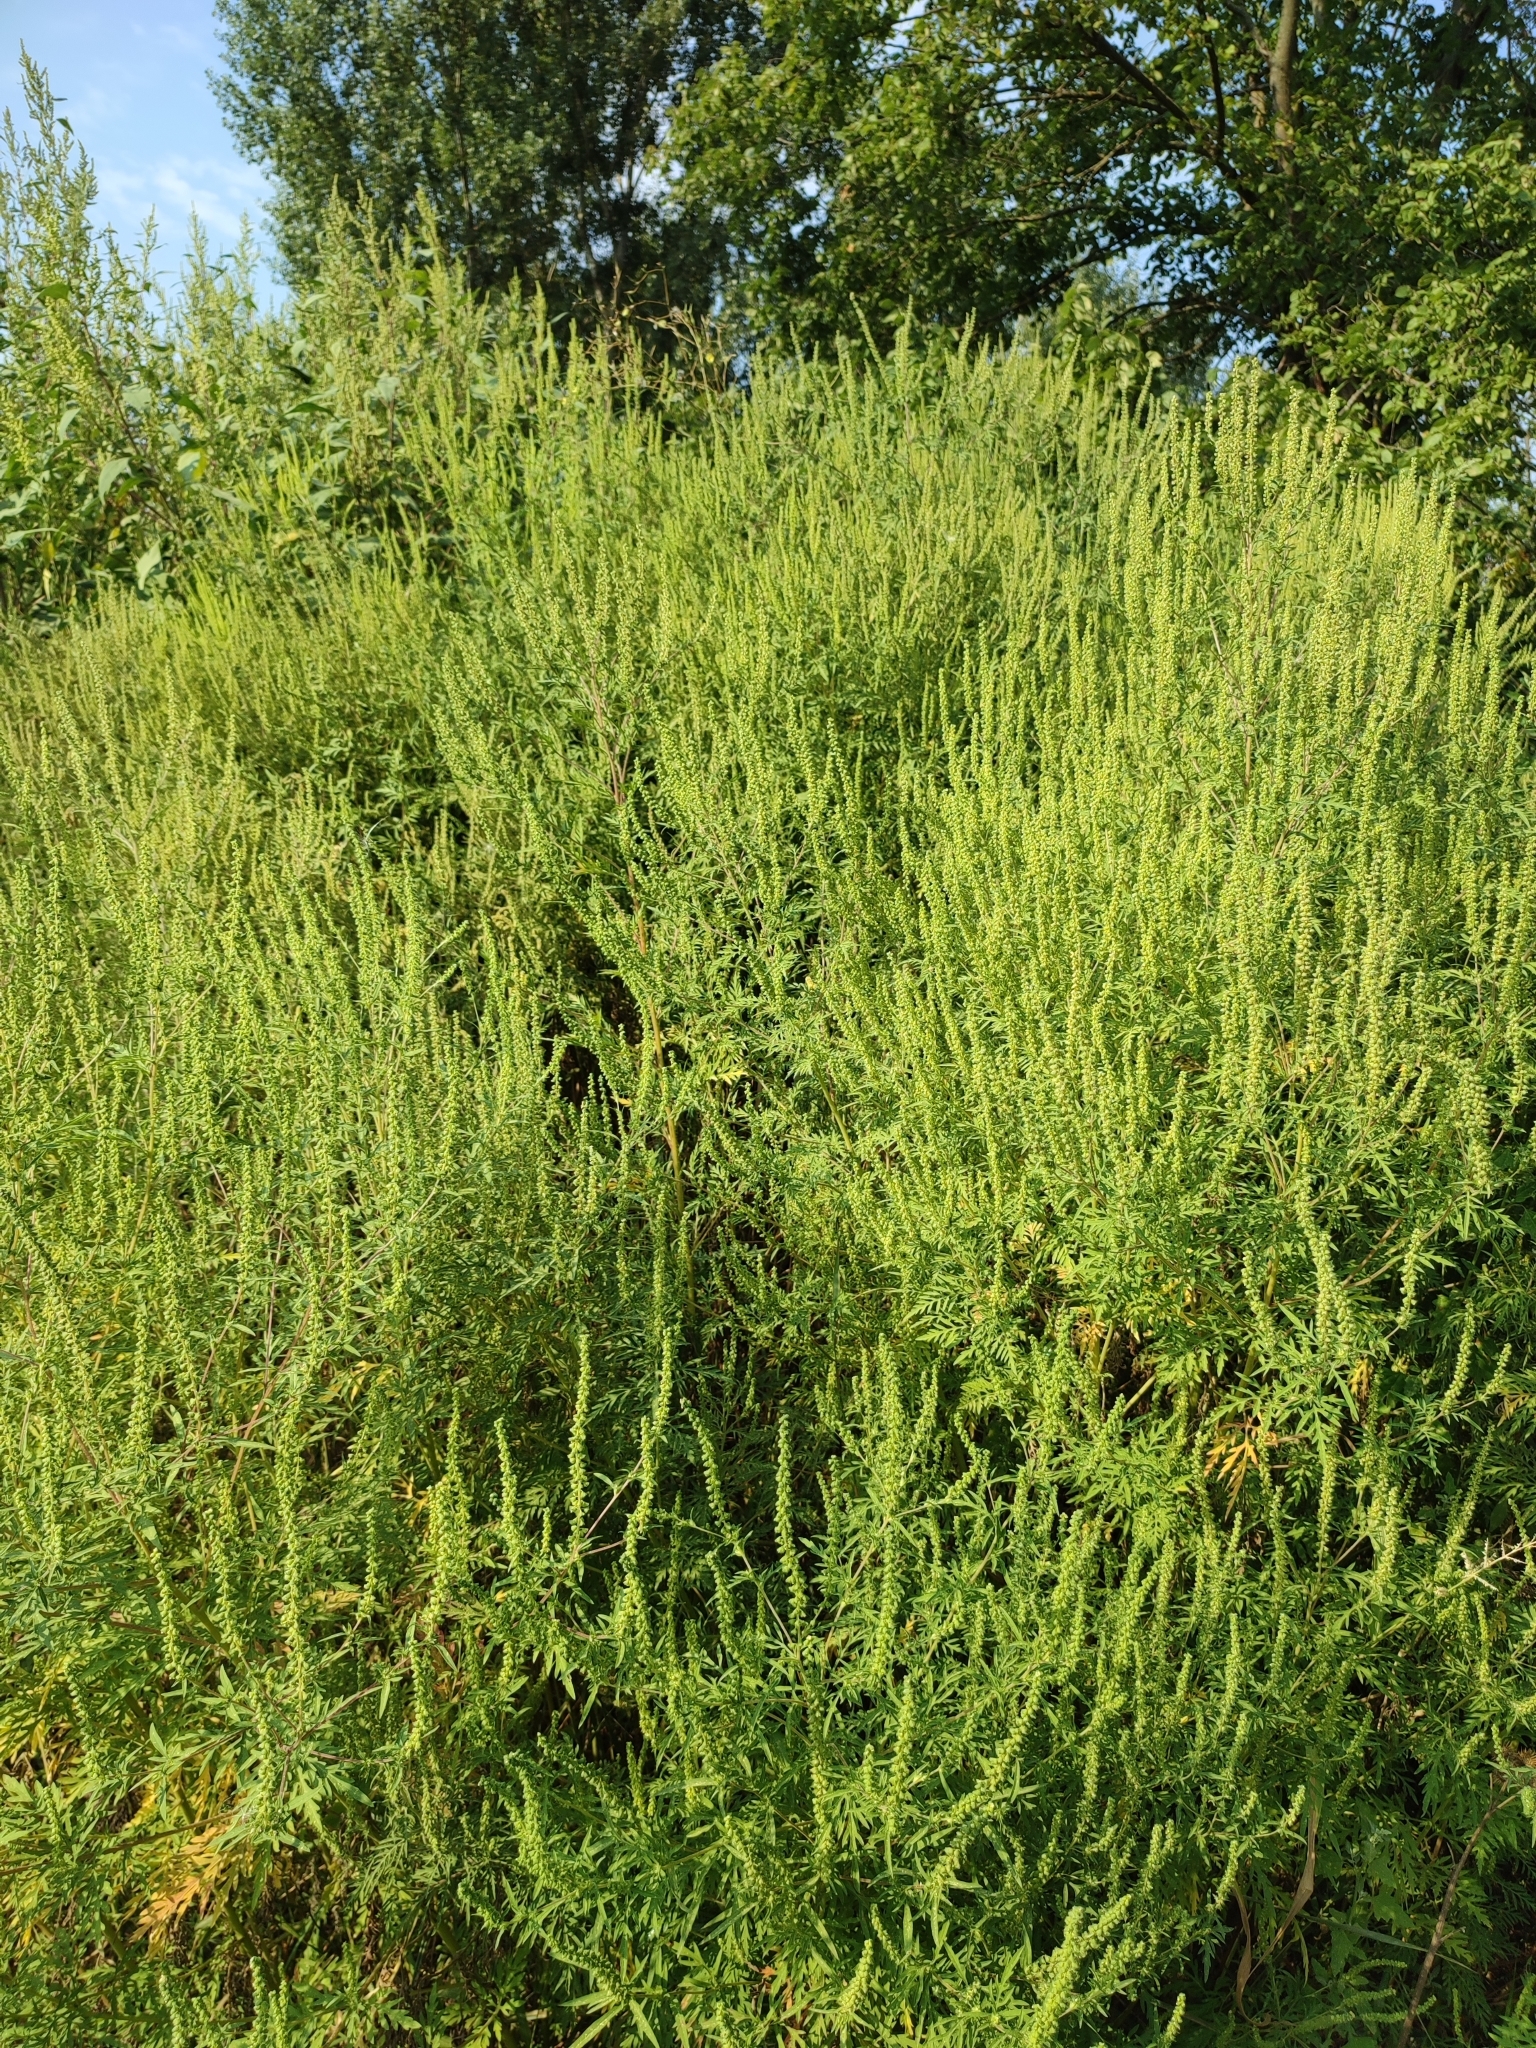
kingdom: Plantae
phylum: Tracheophyta
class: Magnoliopsida
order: Asterales
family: Asteraceae
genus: Ambrosia
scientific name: Ambrosia artemisiifolia
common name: Annual ragweed
